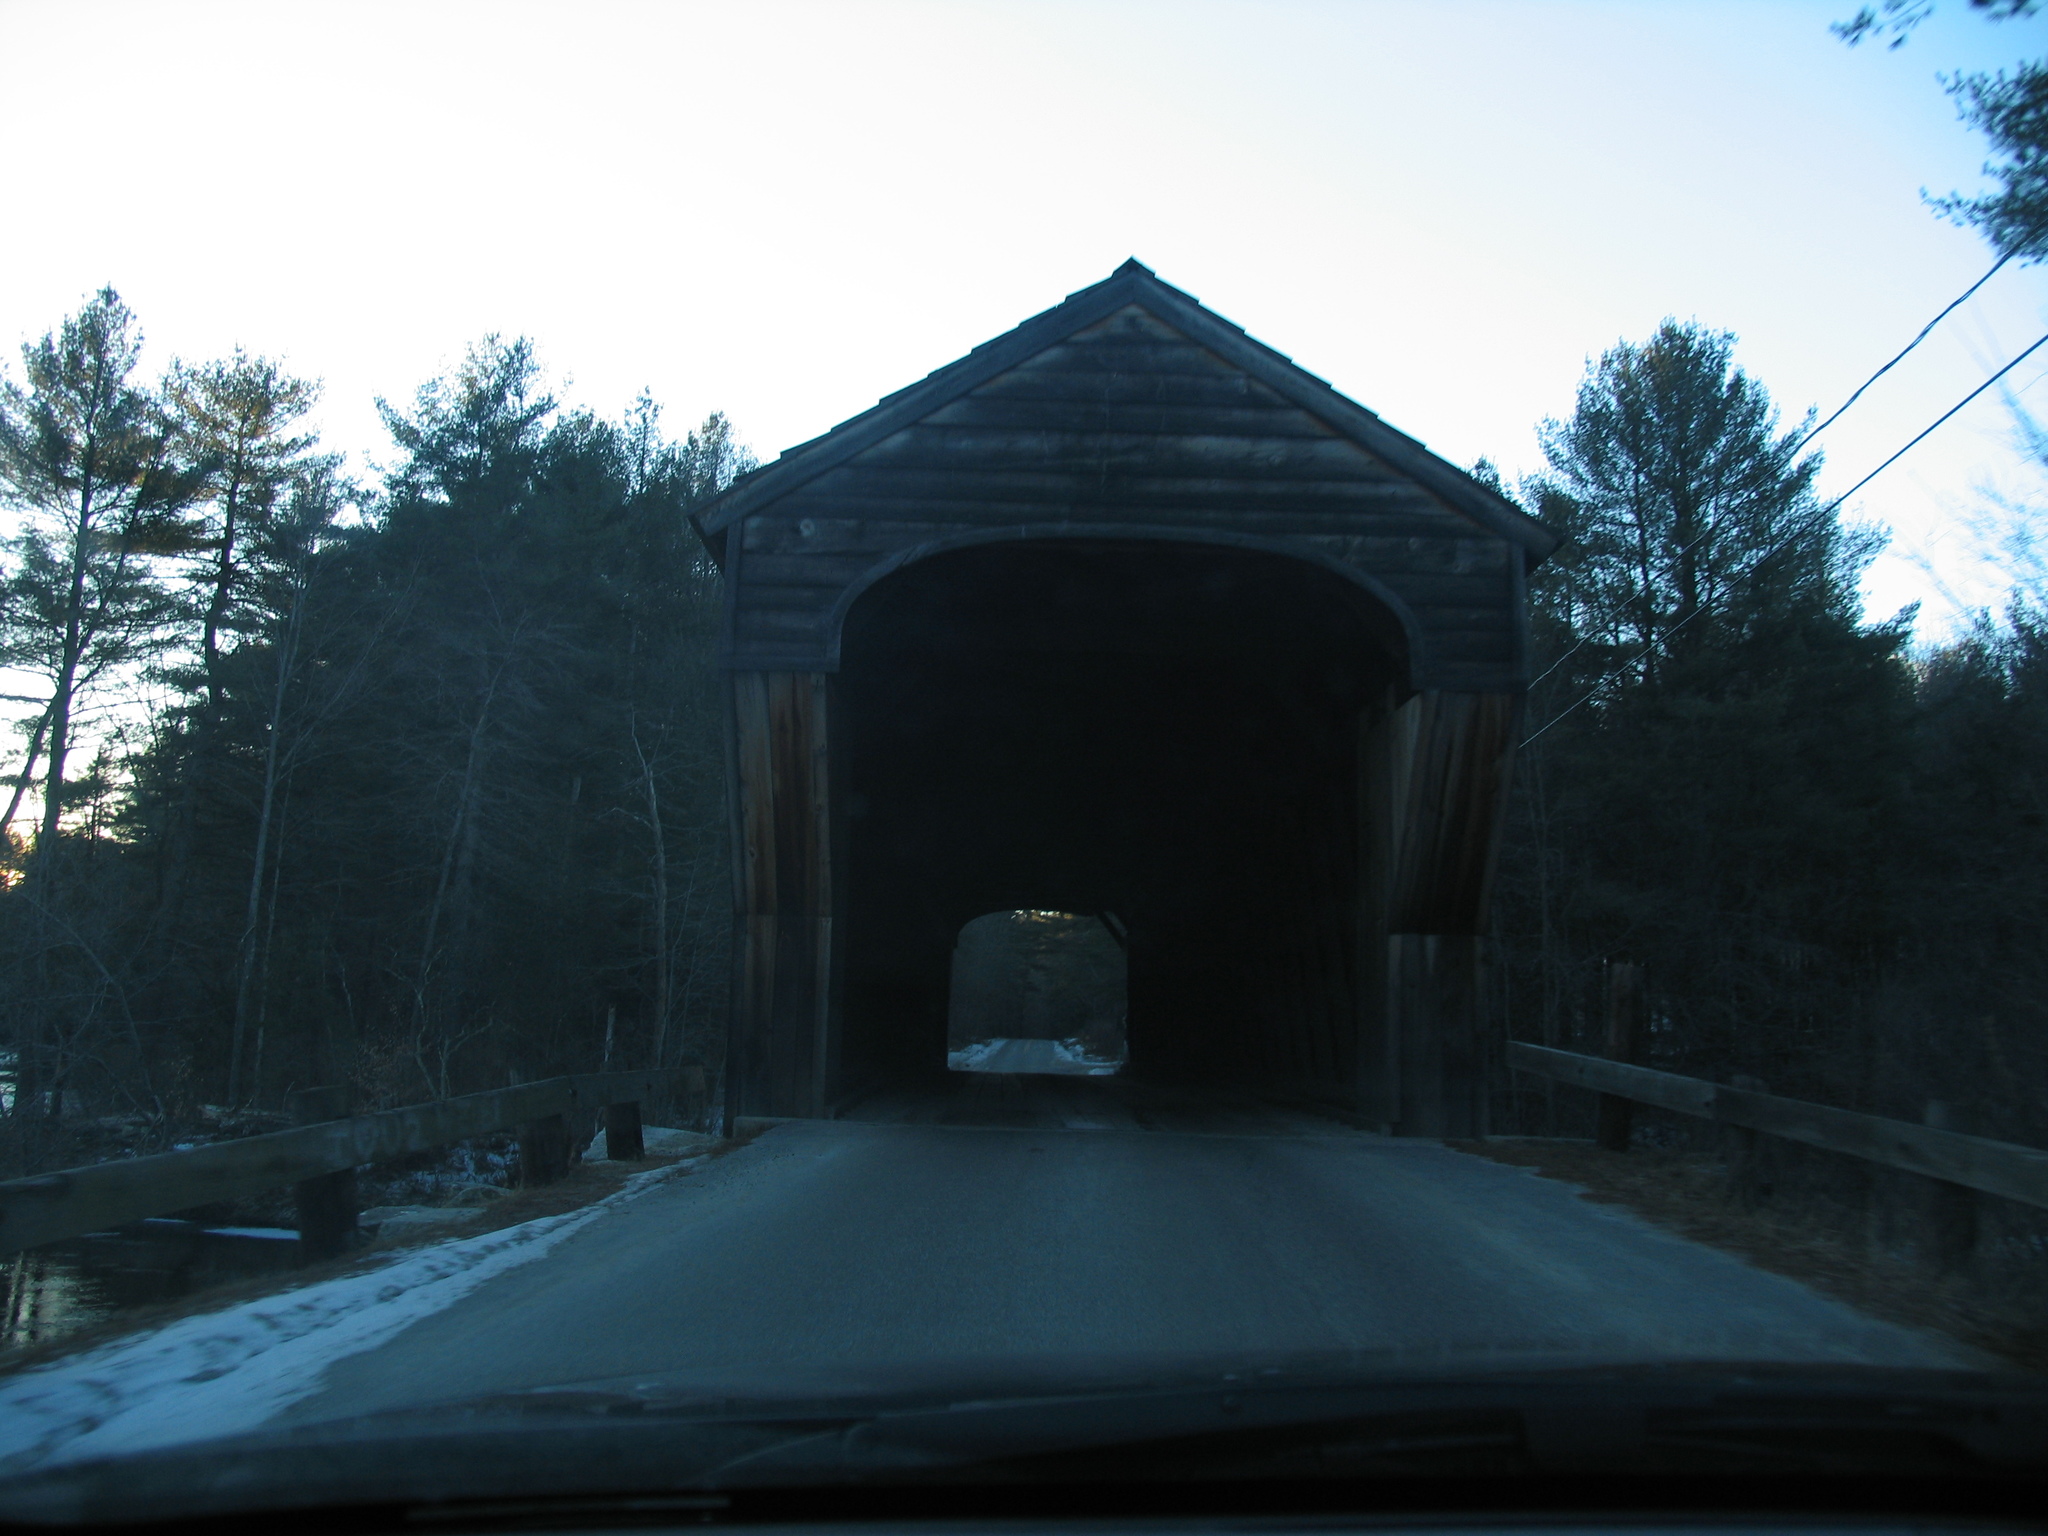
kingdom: Plantae
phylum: Tracheophyta
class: Pinopsida
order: Pinales
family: Pinaceae
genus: Pinus
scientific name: Pinus strobus
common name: Weymouth pine
